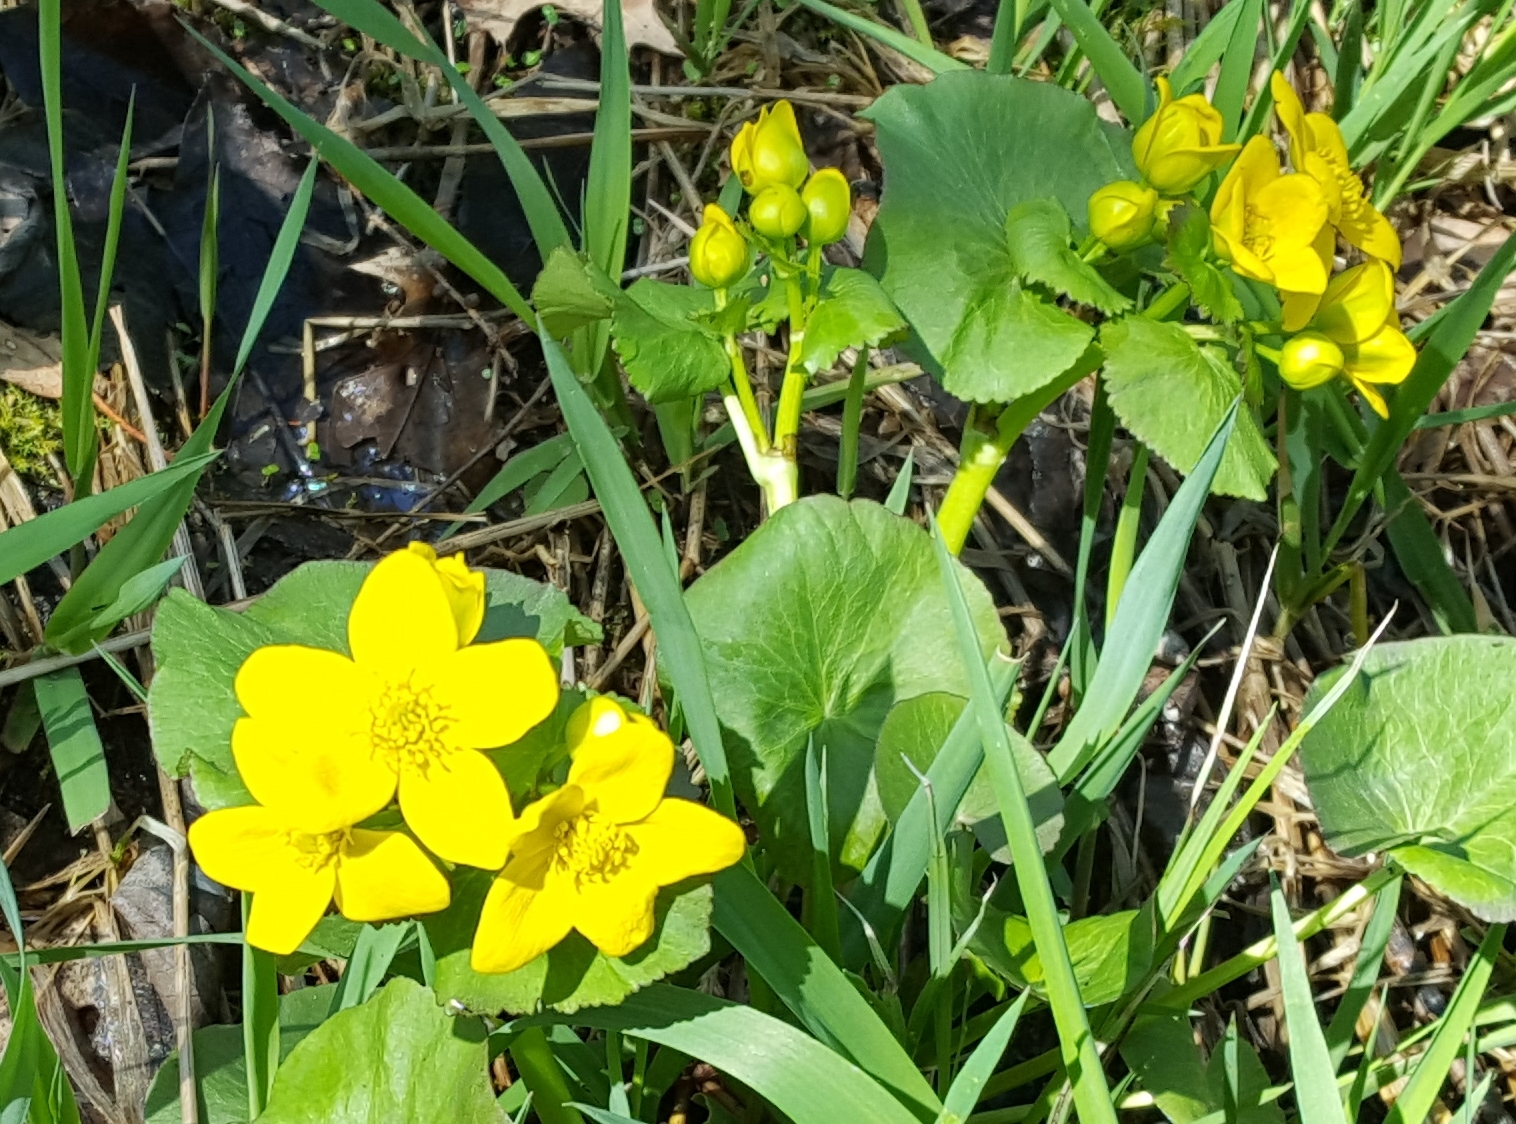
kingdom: Plantae
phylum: Tracheophyta
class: Magnoliopsida
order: Ranunculales
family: Ranunculaceae
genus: Caltha
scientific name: Caltha palustris
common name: Marsh marigold
